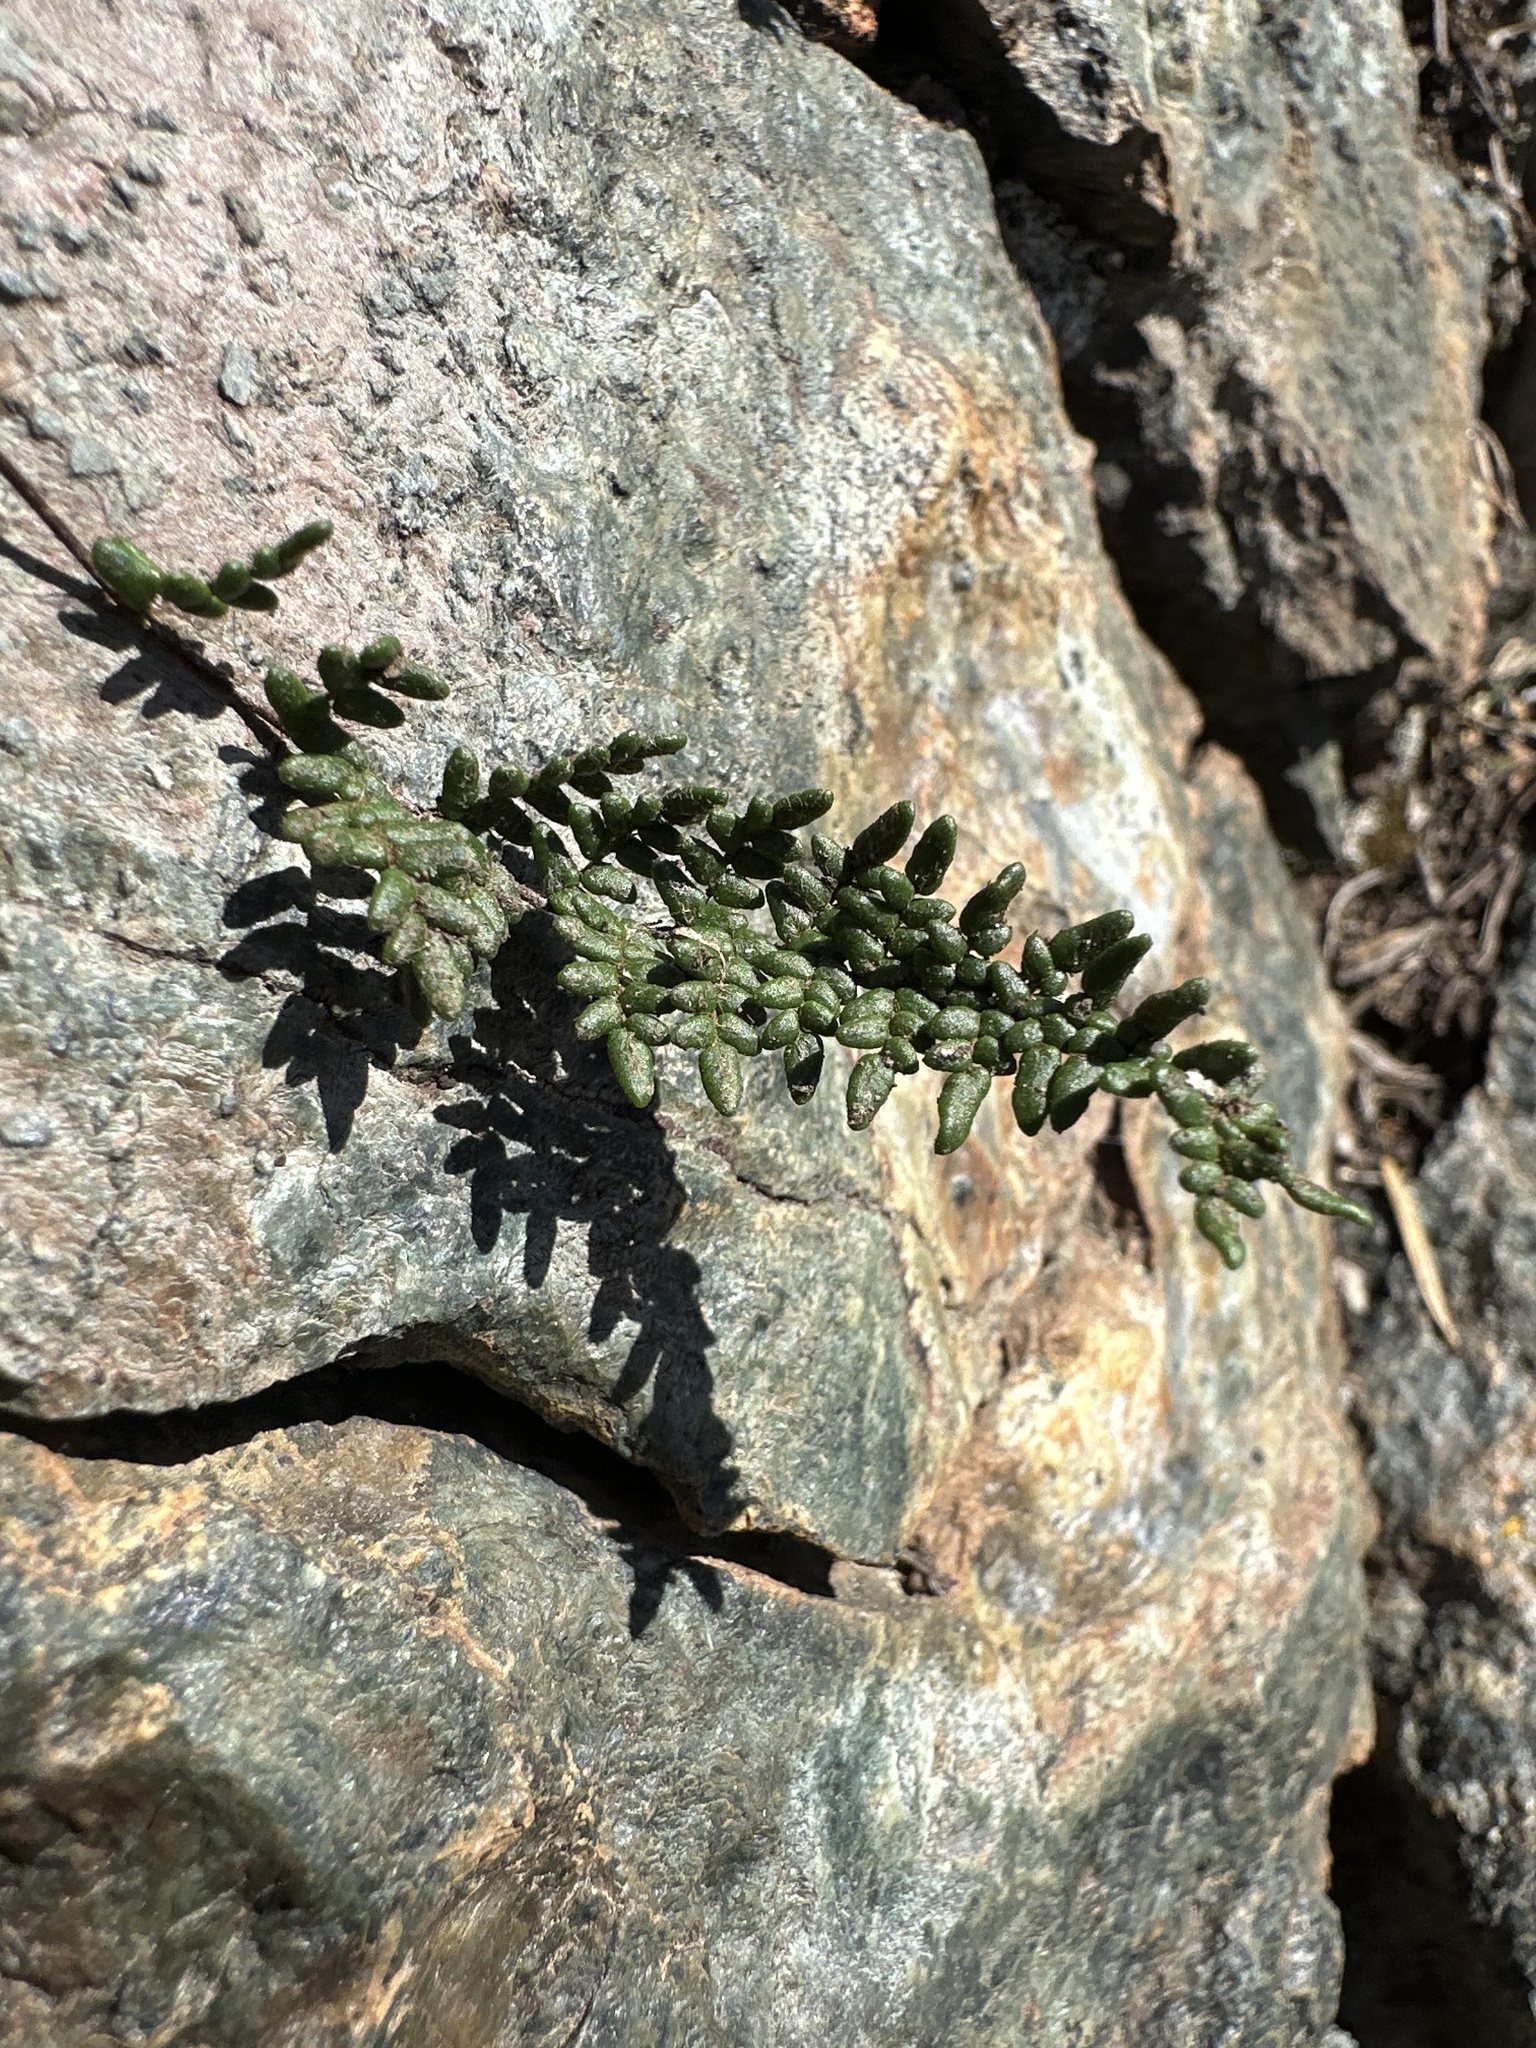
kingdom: Plantae
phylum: Tracheophyta
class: Polypodiopsida
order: Polypodiales
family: Pteridaceae
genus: Myriopteris
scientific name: Myriopteris gracillima
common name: Lace fern
